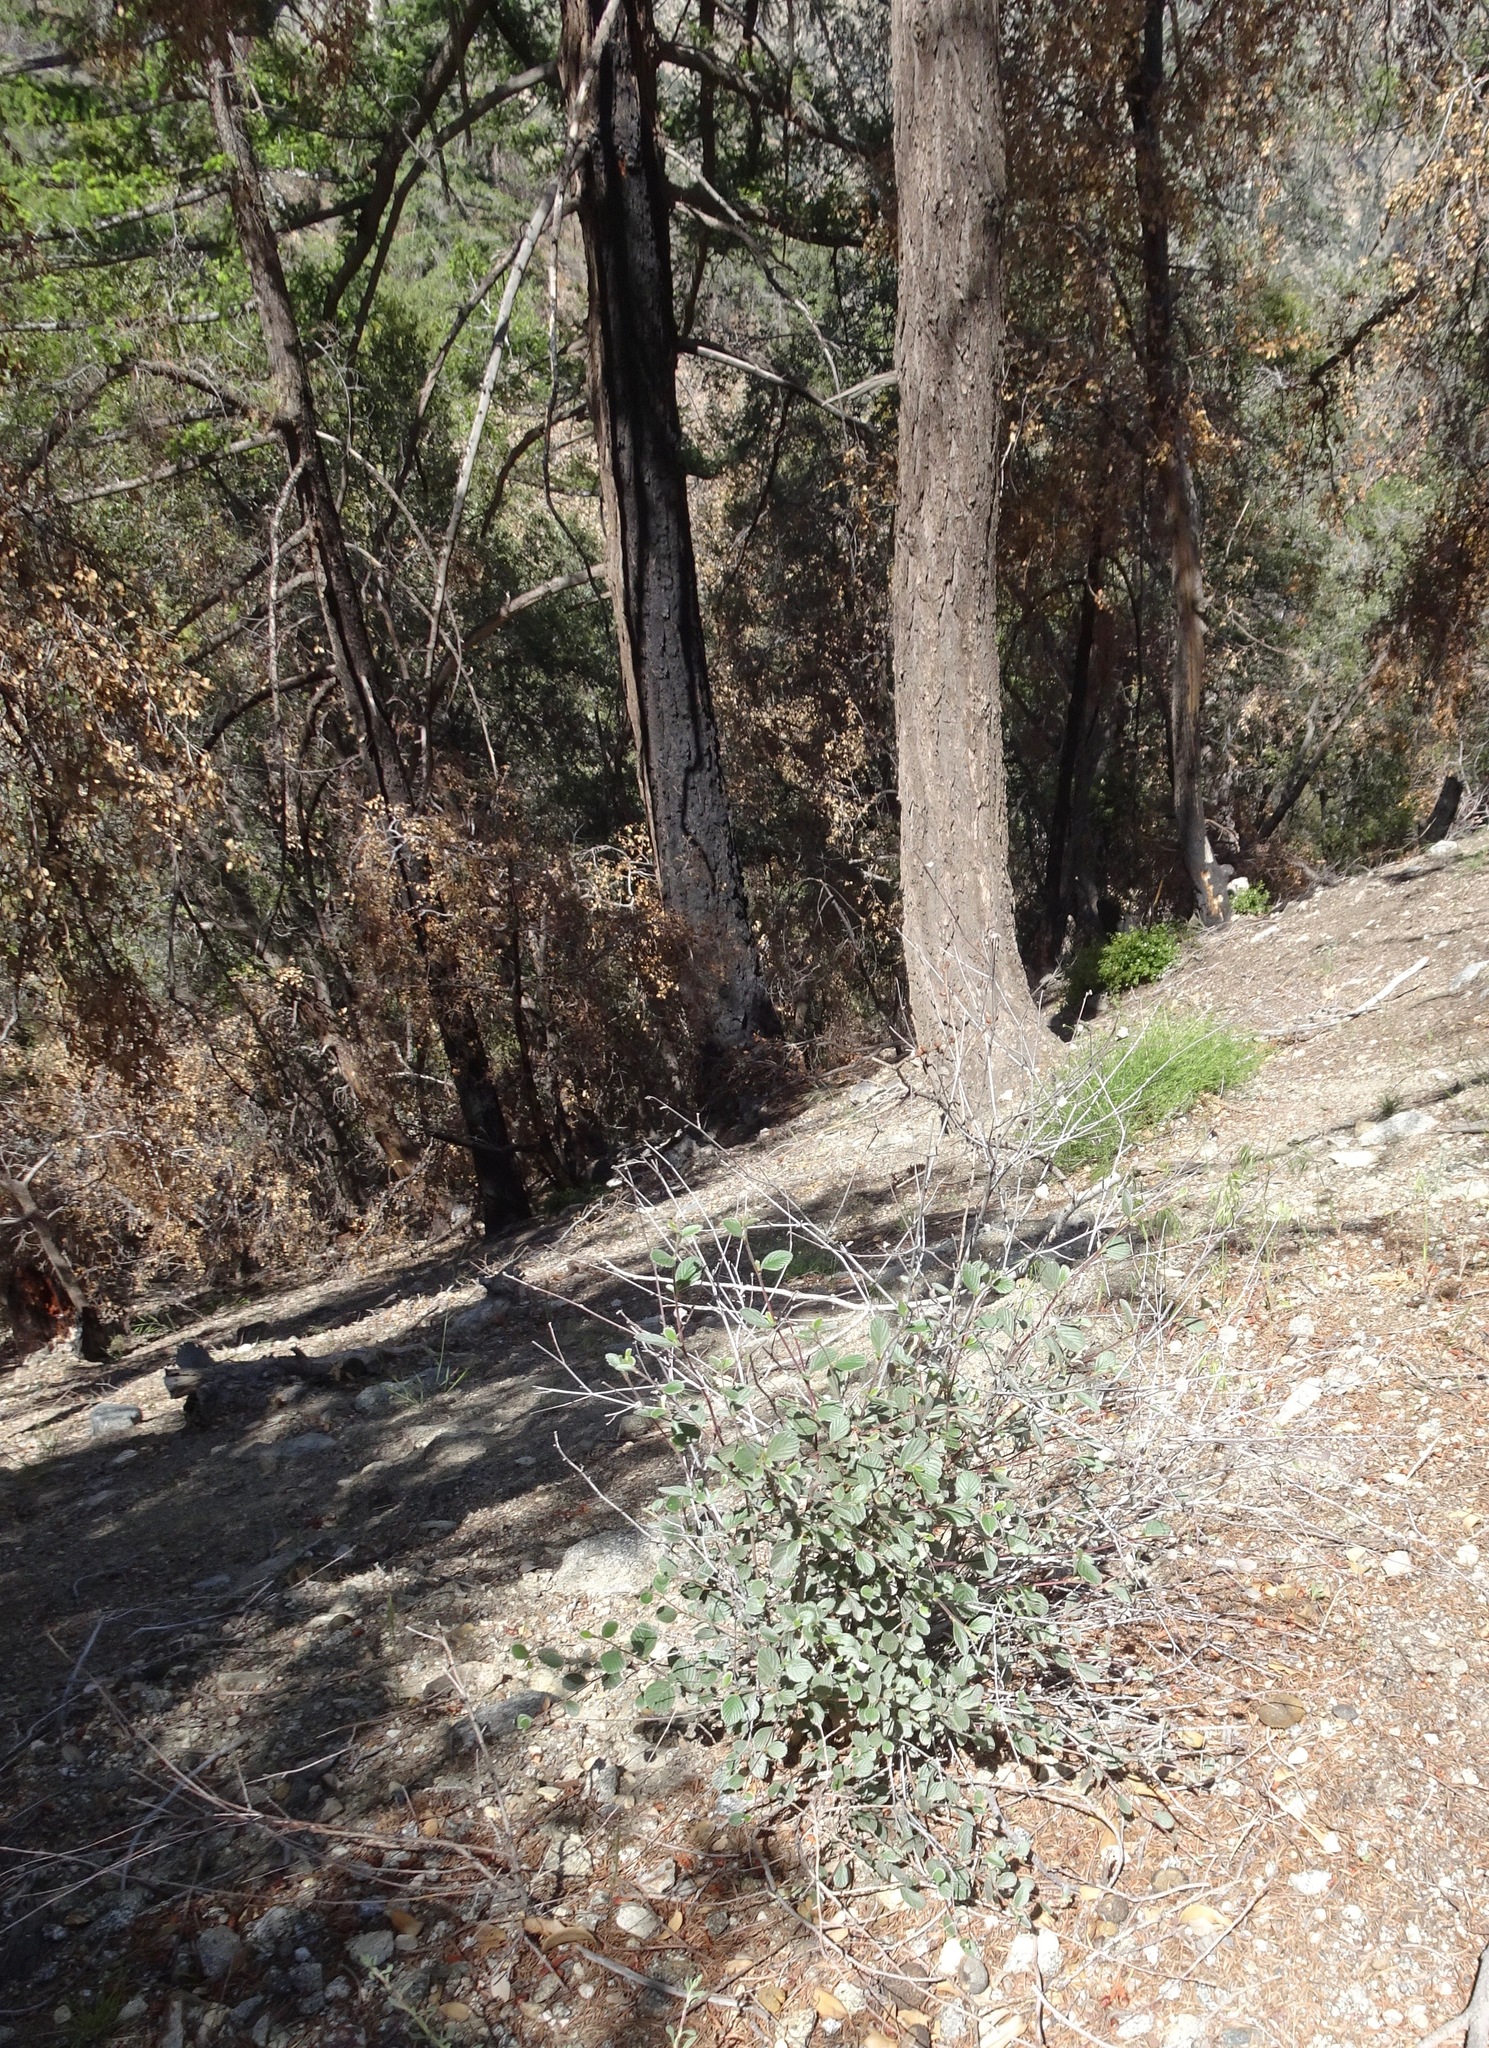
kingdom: Plantae
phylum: Tracheophyta
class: Magnoliopsida
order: Rosales
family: Rosaceae
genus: Cercocarpus
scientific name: Cercocarpus betuloides
